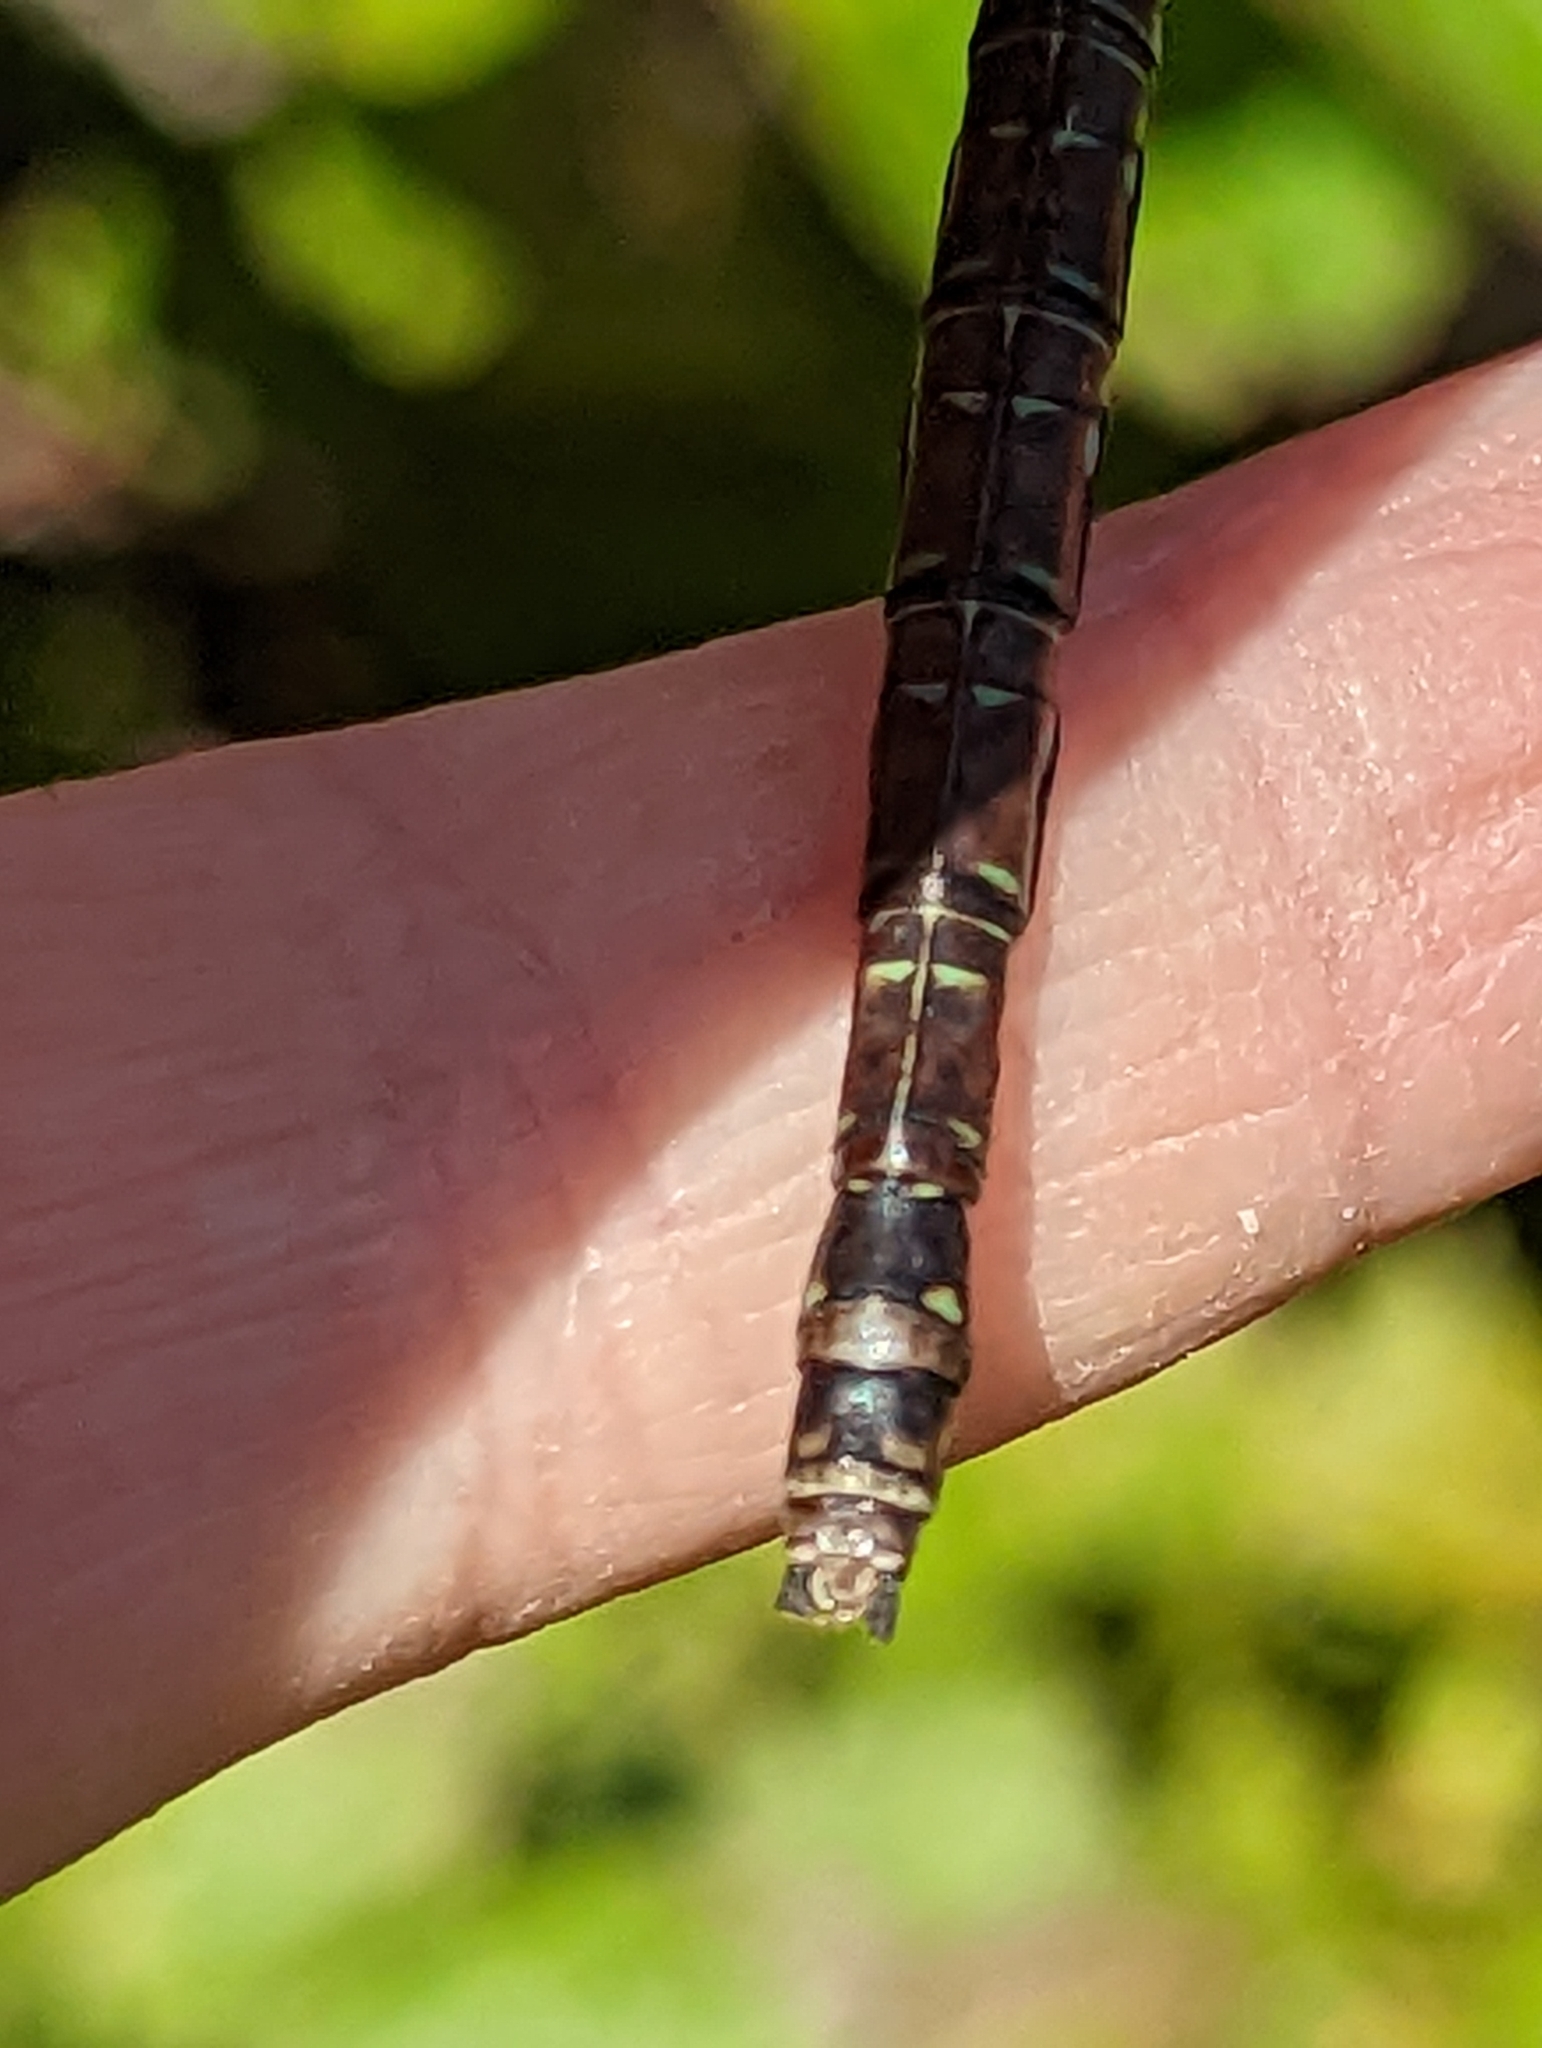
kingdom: Animalia
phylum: Arthropoda
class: Insecta
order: Odonata
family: Aeshnidae
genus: Aeshna
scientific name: Aeshna umbrosa
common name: Shadow darner
